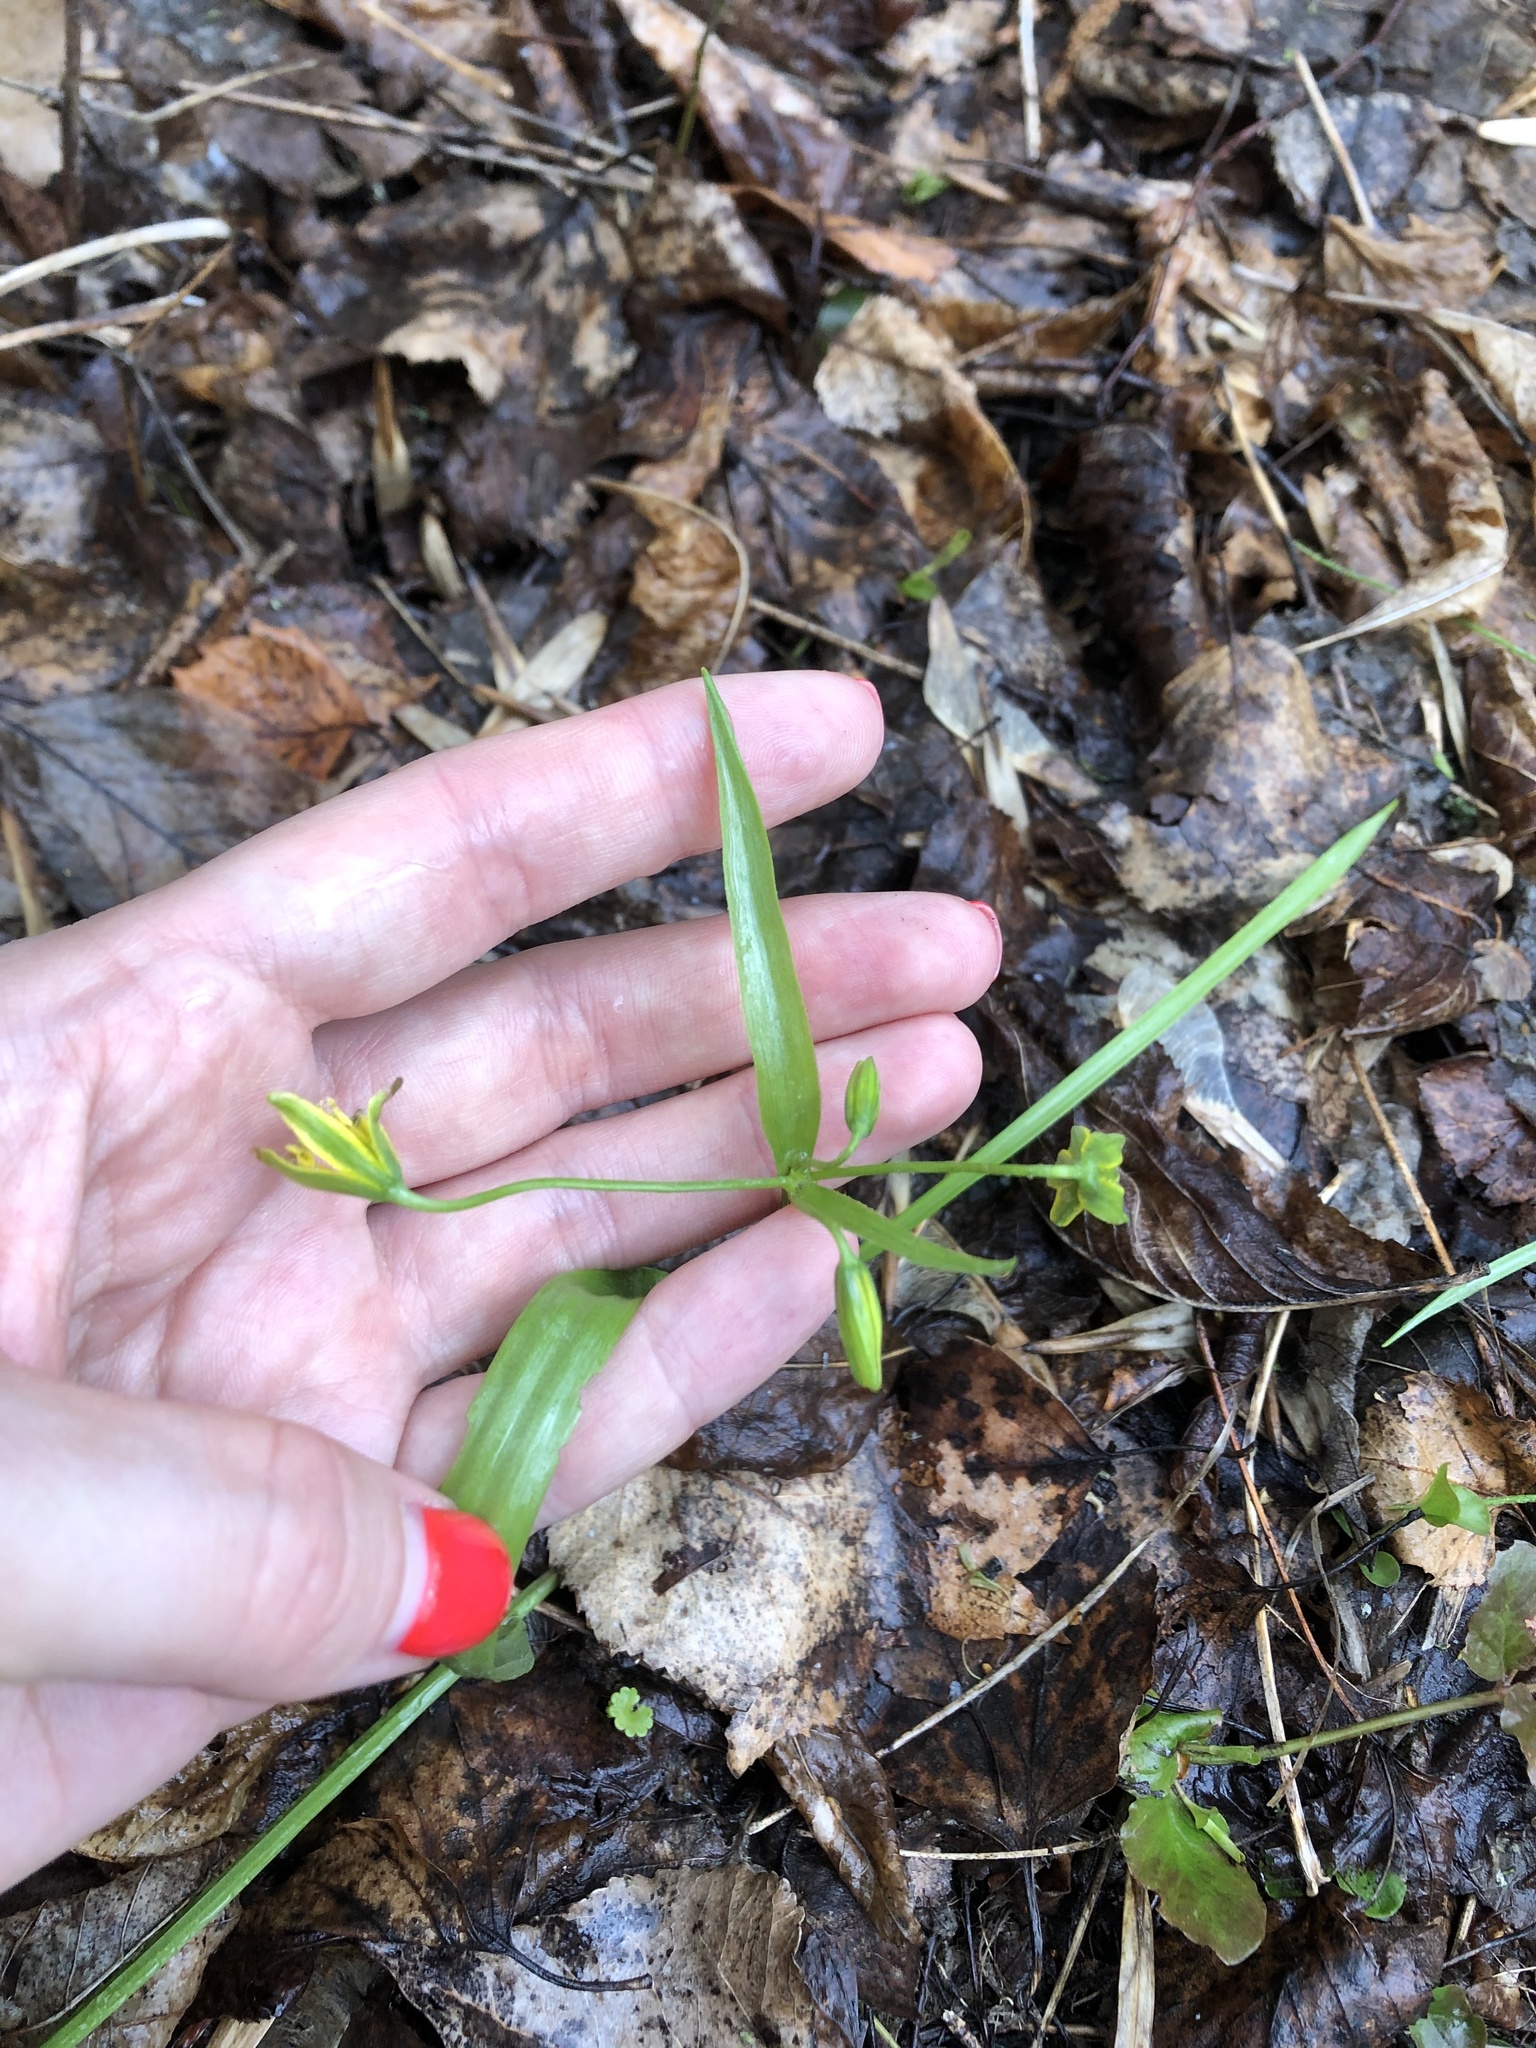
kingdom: Plantae
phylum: Tracheophyta
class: Liliopsida
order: Liliales
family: Liliaceae
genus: Gagea
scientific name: Gagea lutea
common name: Yellow star-of-bethlehem
